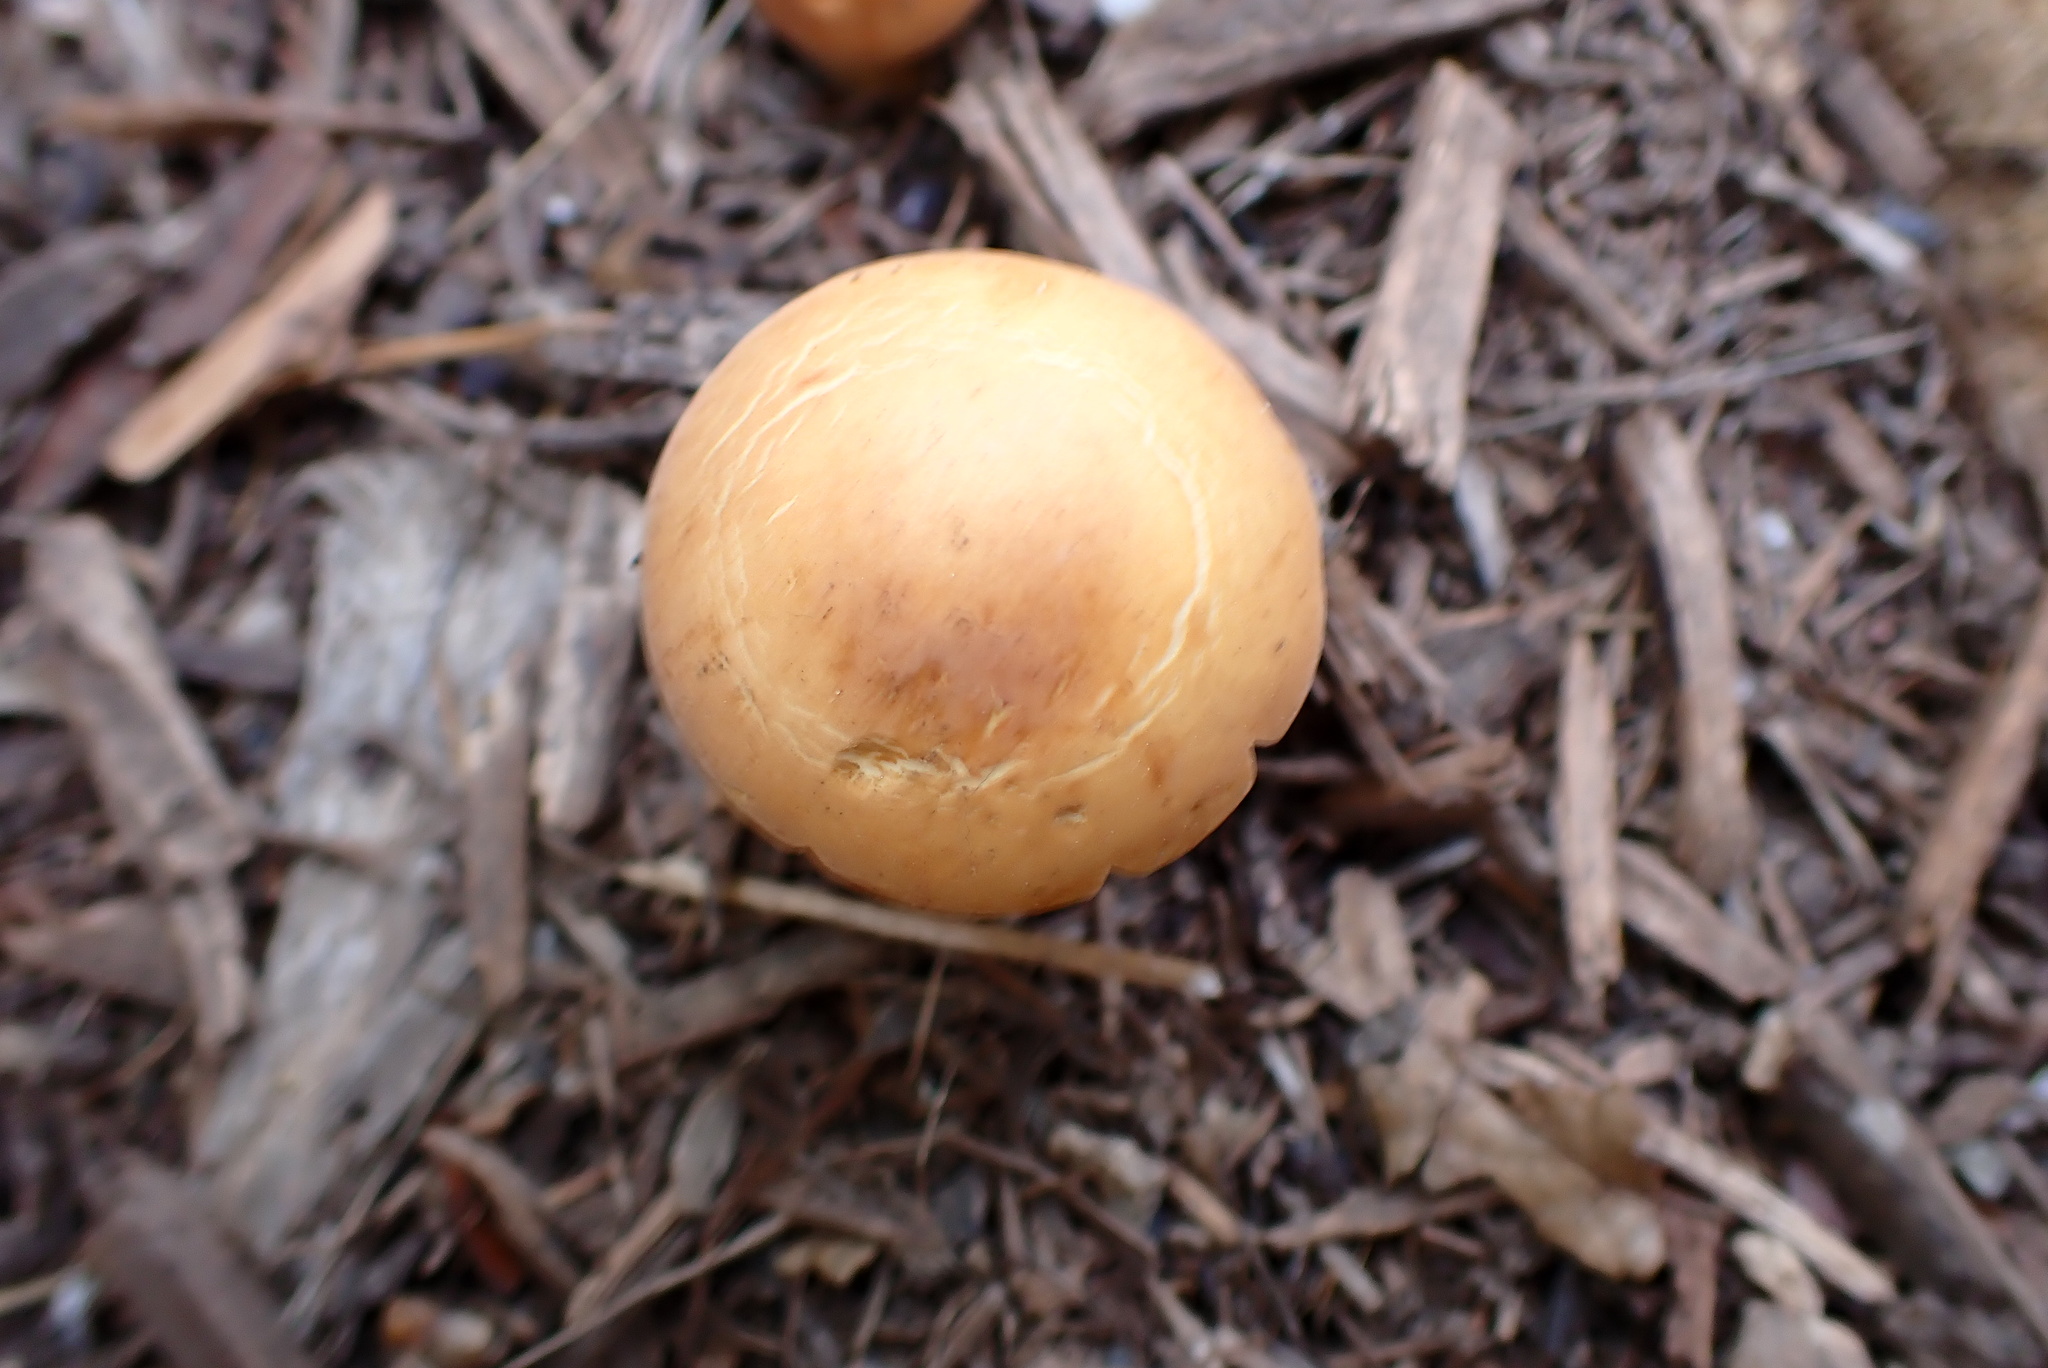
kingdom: Fungi
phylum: Basidiomycota
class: Agaricomycetes
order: Agaricales
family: Strophariaceae
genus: Agrocybe
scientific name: Agrocybe putaminum
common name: Mulch fieldcap
